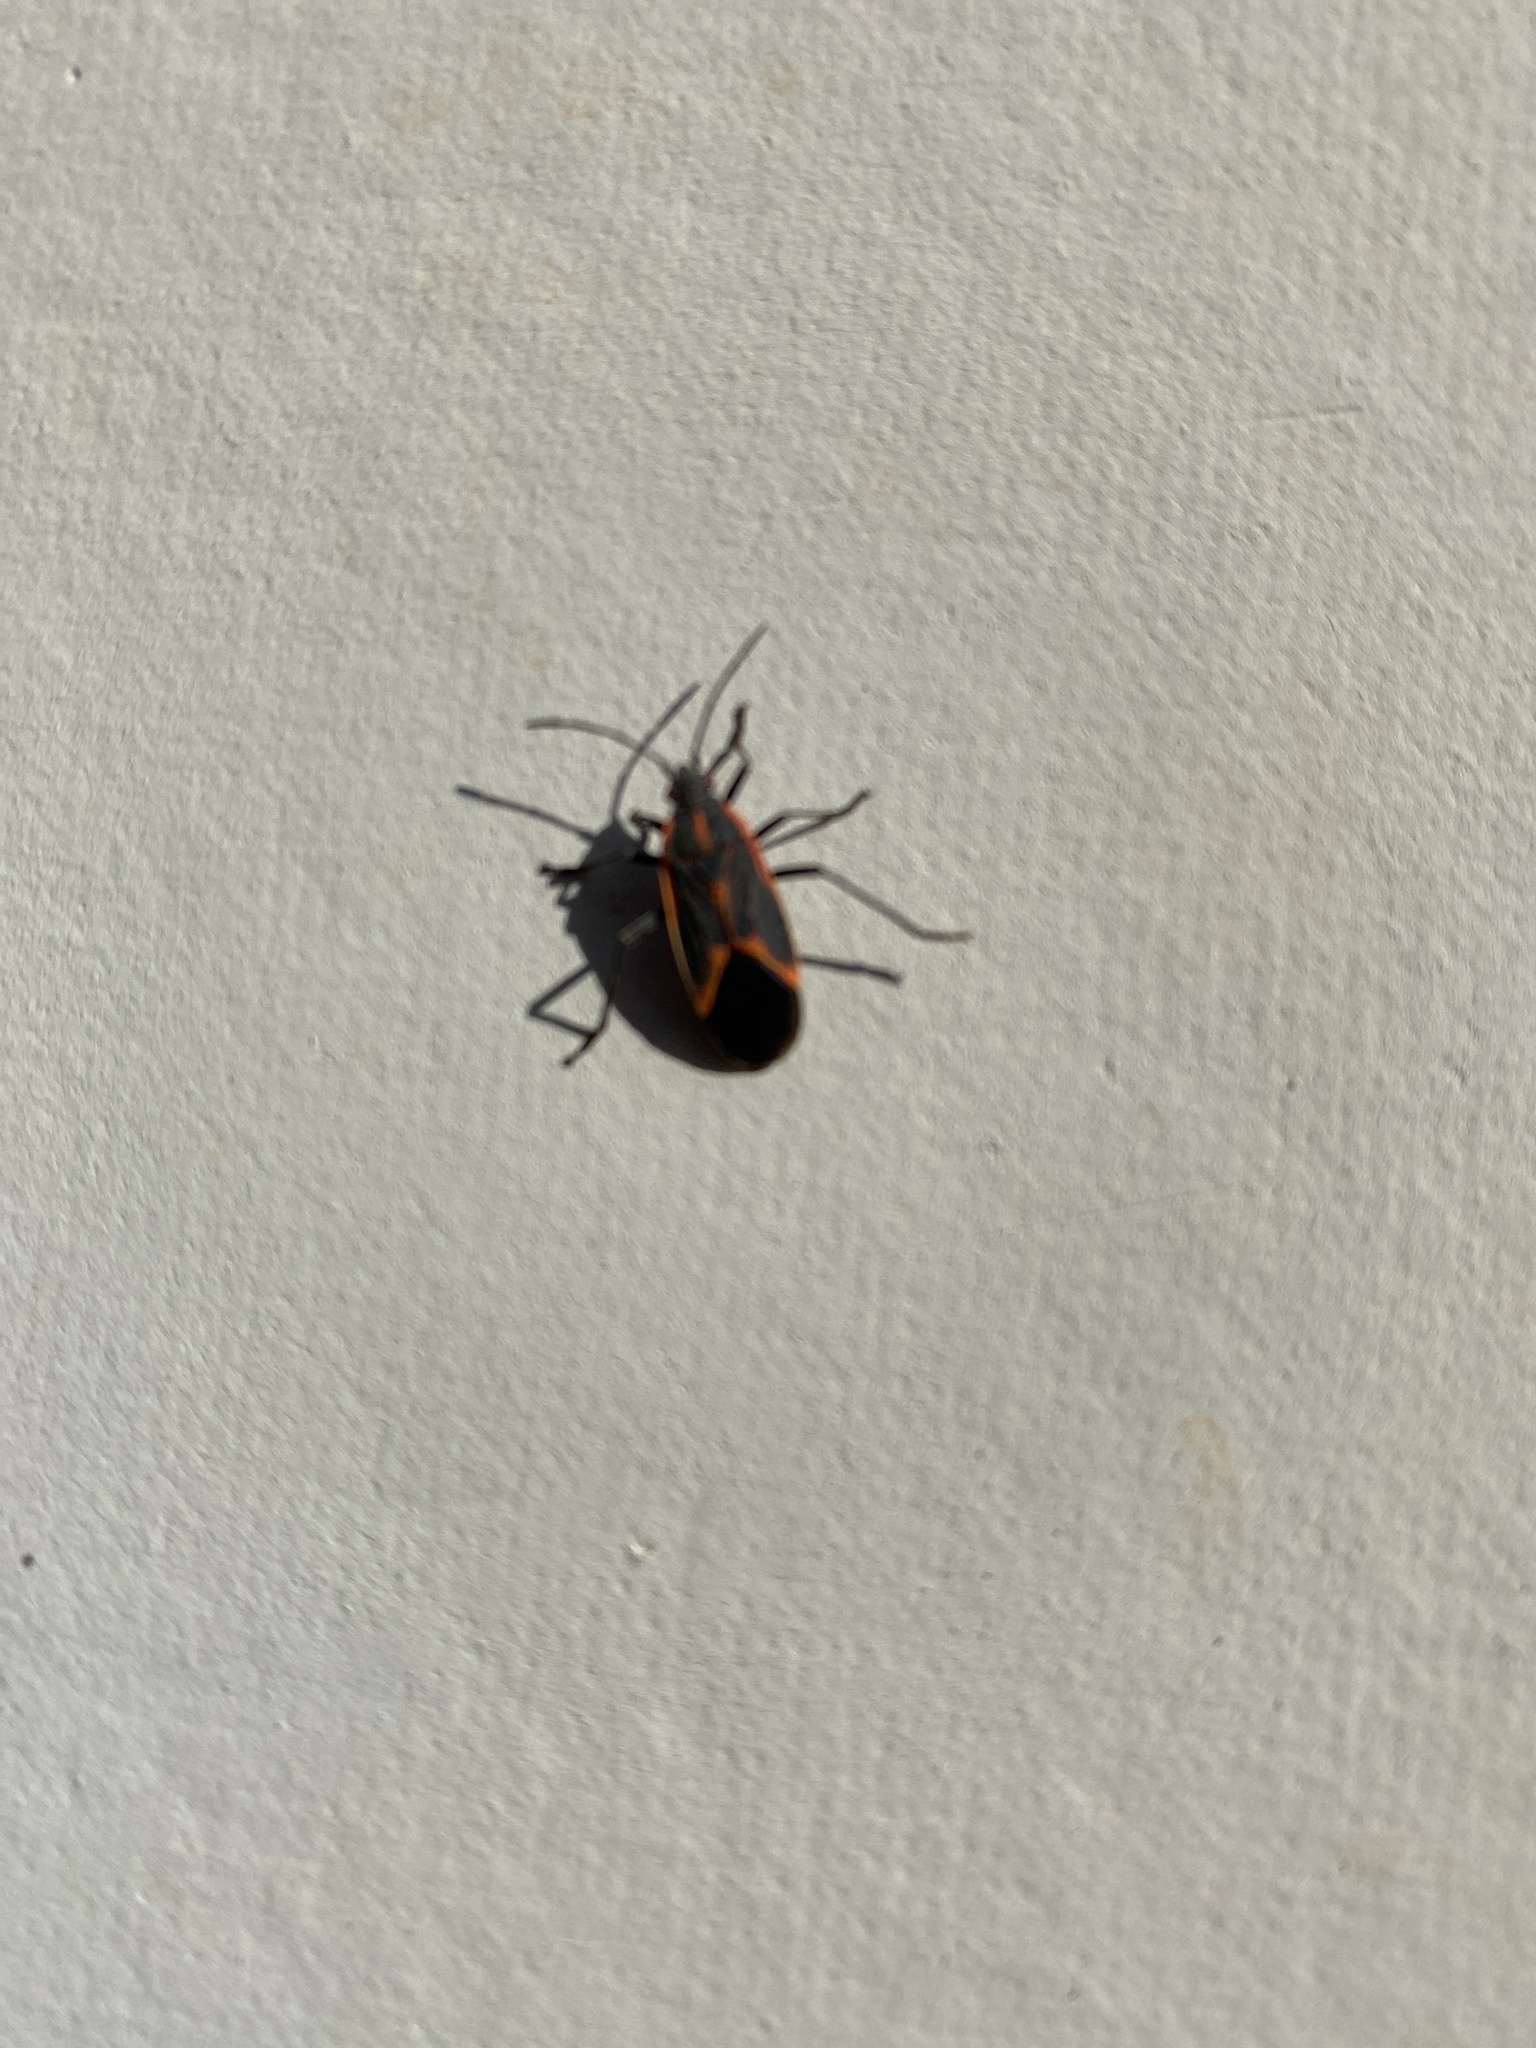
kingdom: Animalia
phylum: Arthropoda
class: Insecta
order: Hemiptera
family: Rhopalidae
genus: Boisea
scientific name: Boisea trivittata
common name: Boxelder bug
